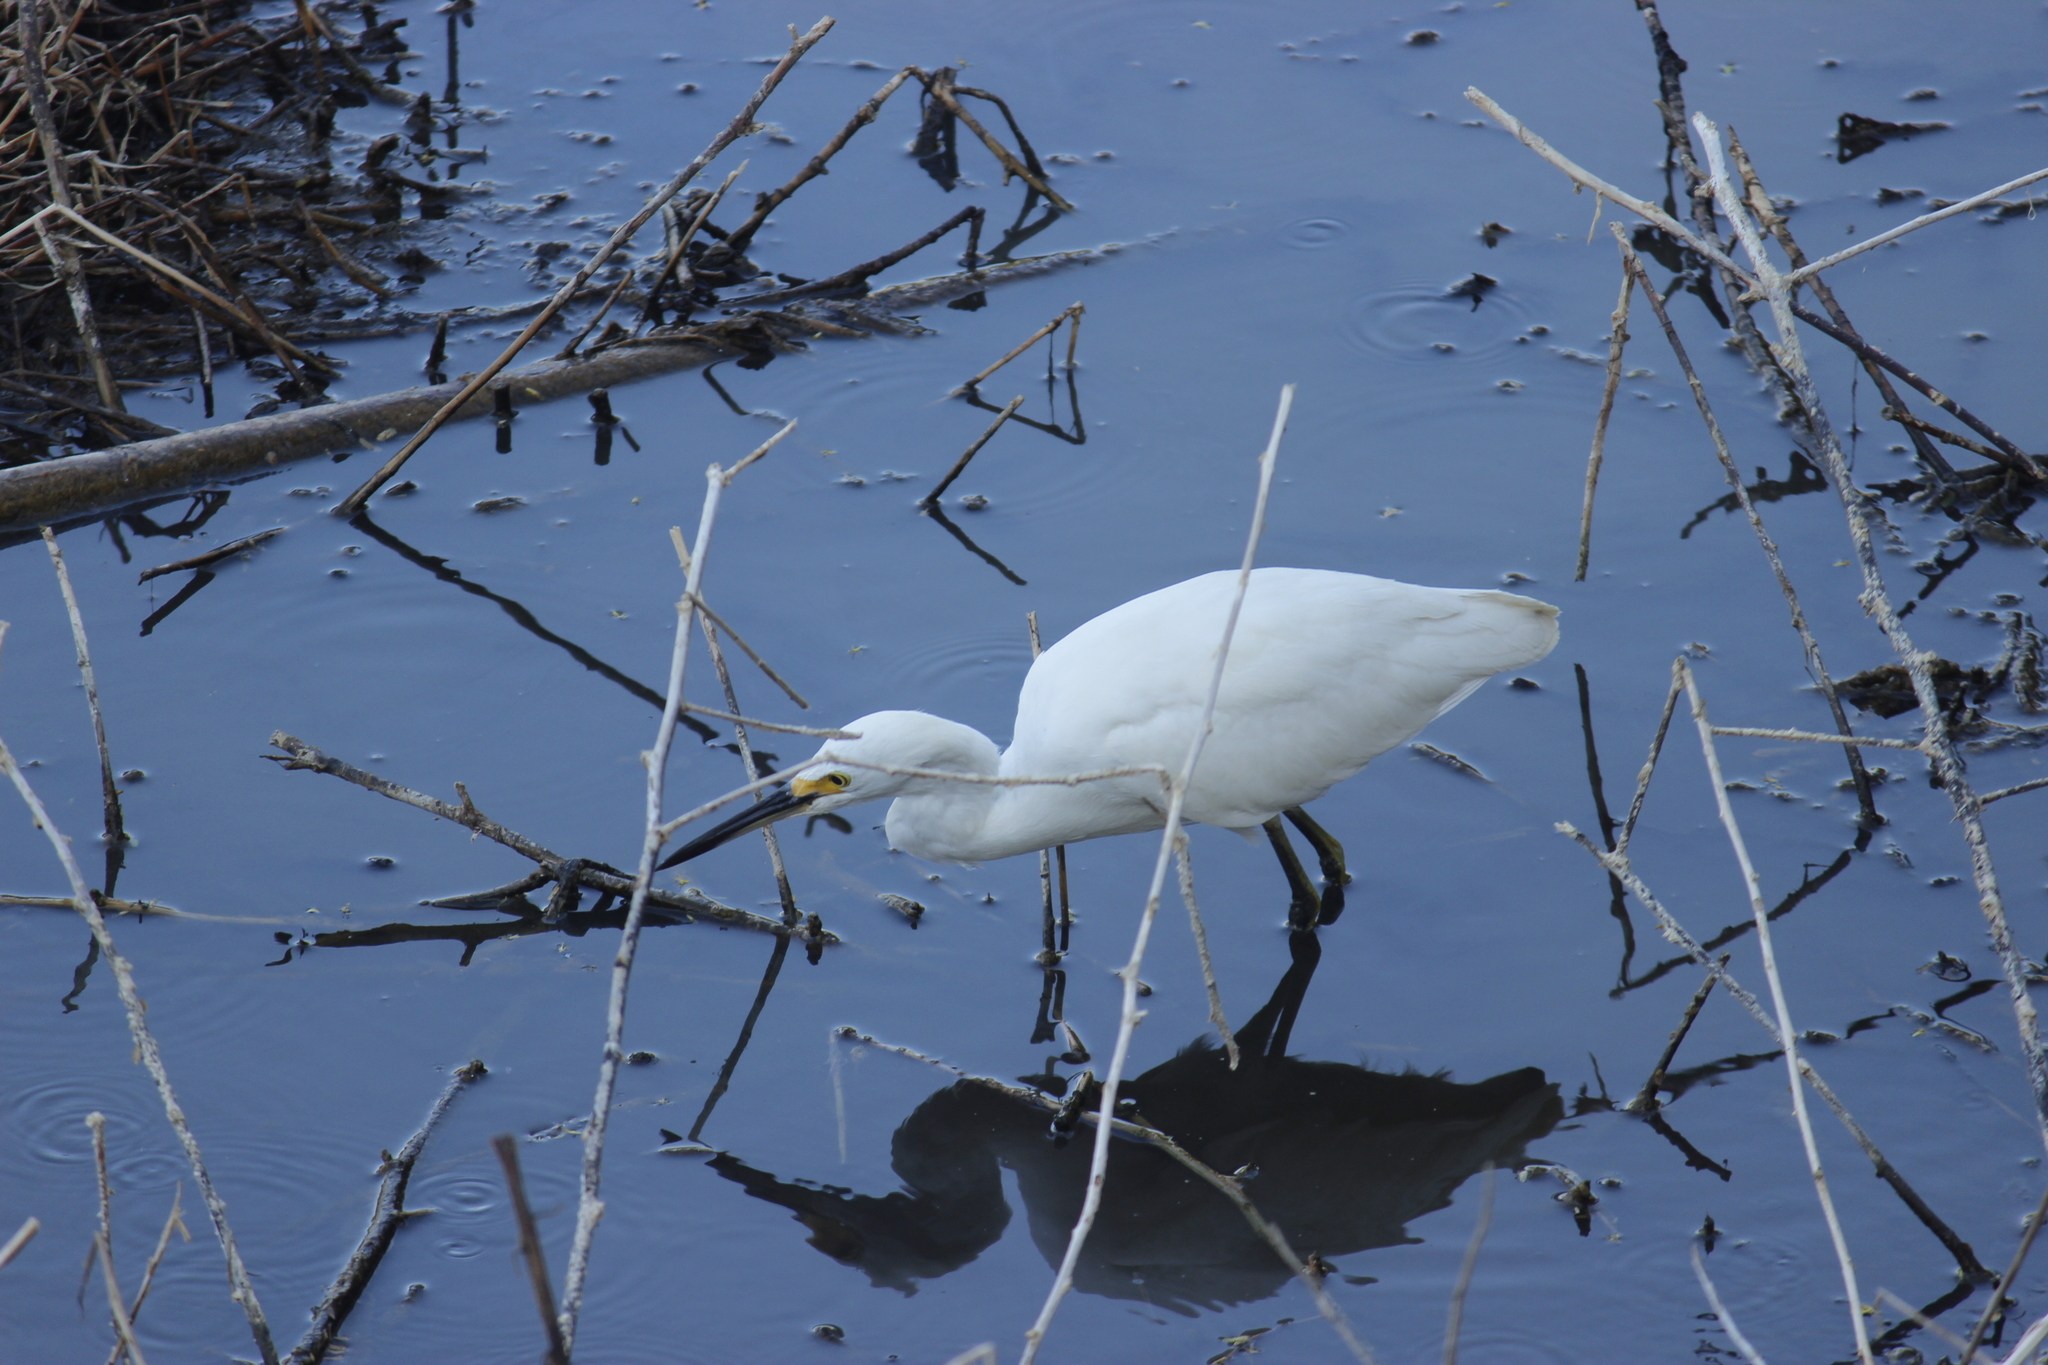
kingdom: Animalia
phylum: Chordata
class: Aves
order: Pelecaniformes
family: Ardeidae
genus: Egretta
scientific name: Egretta thula
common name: Snowy egret
